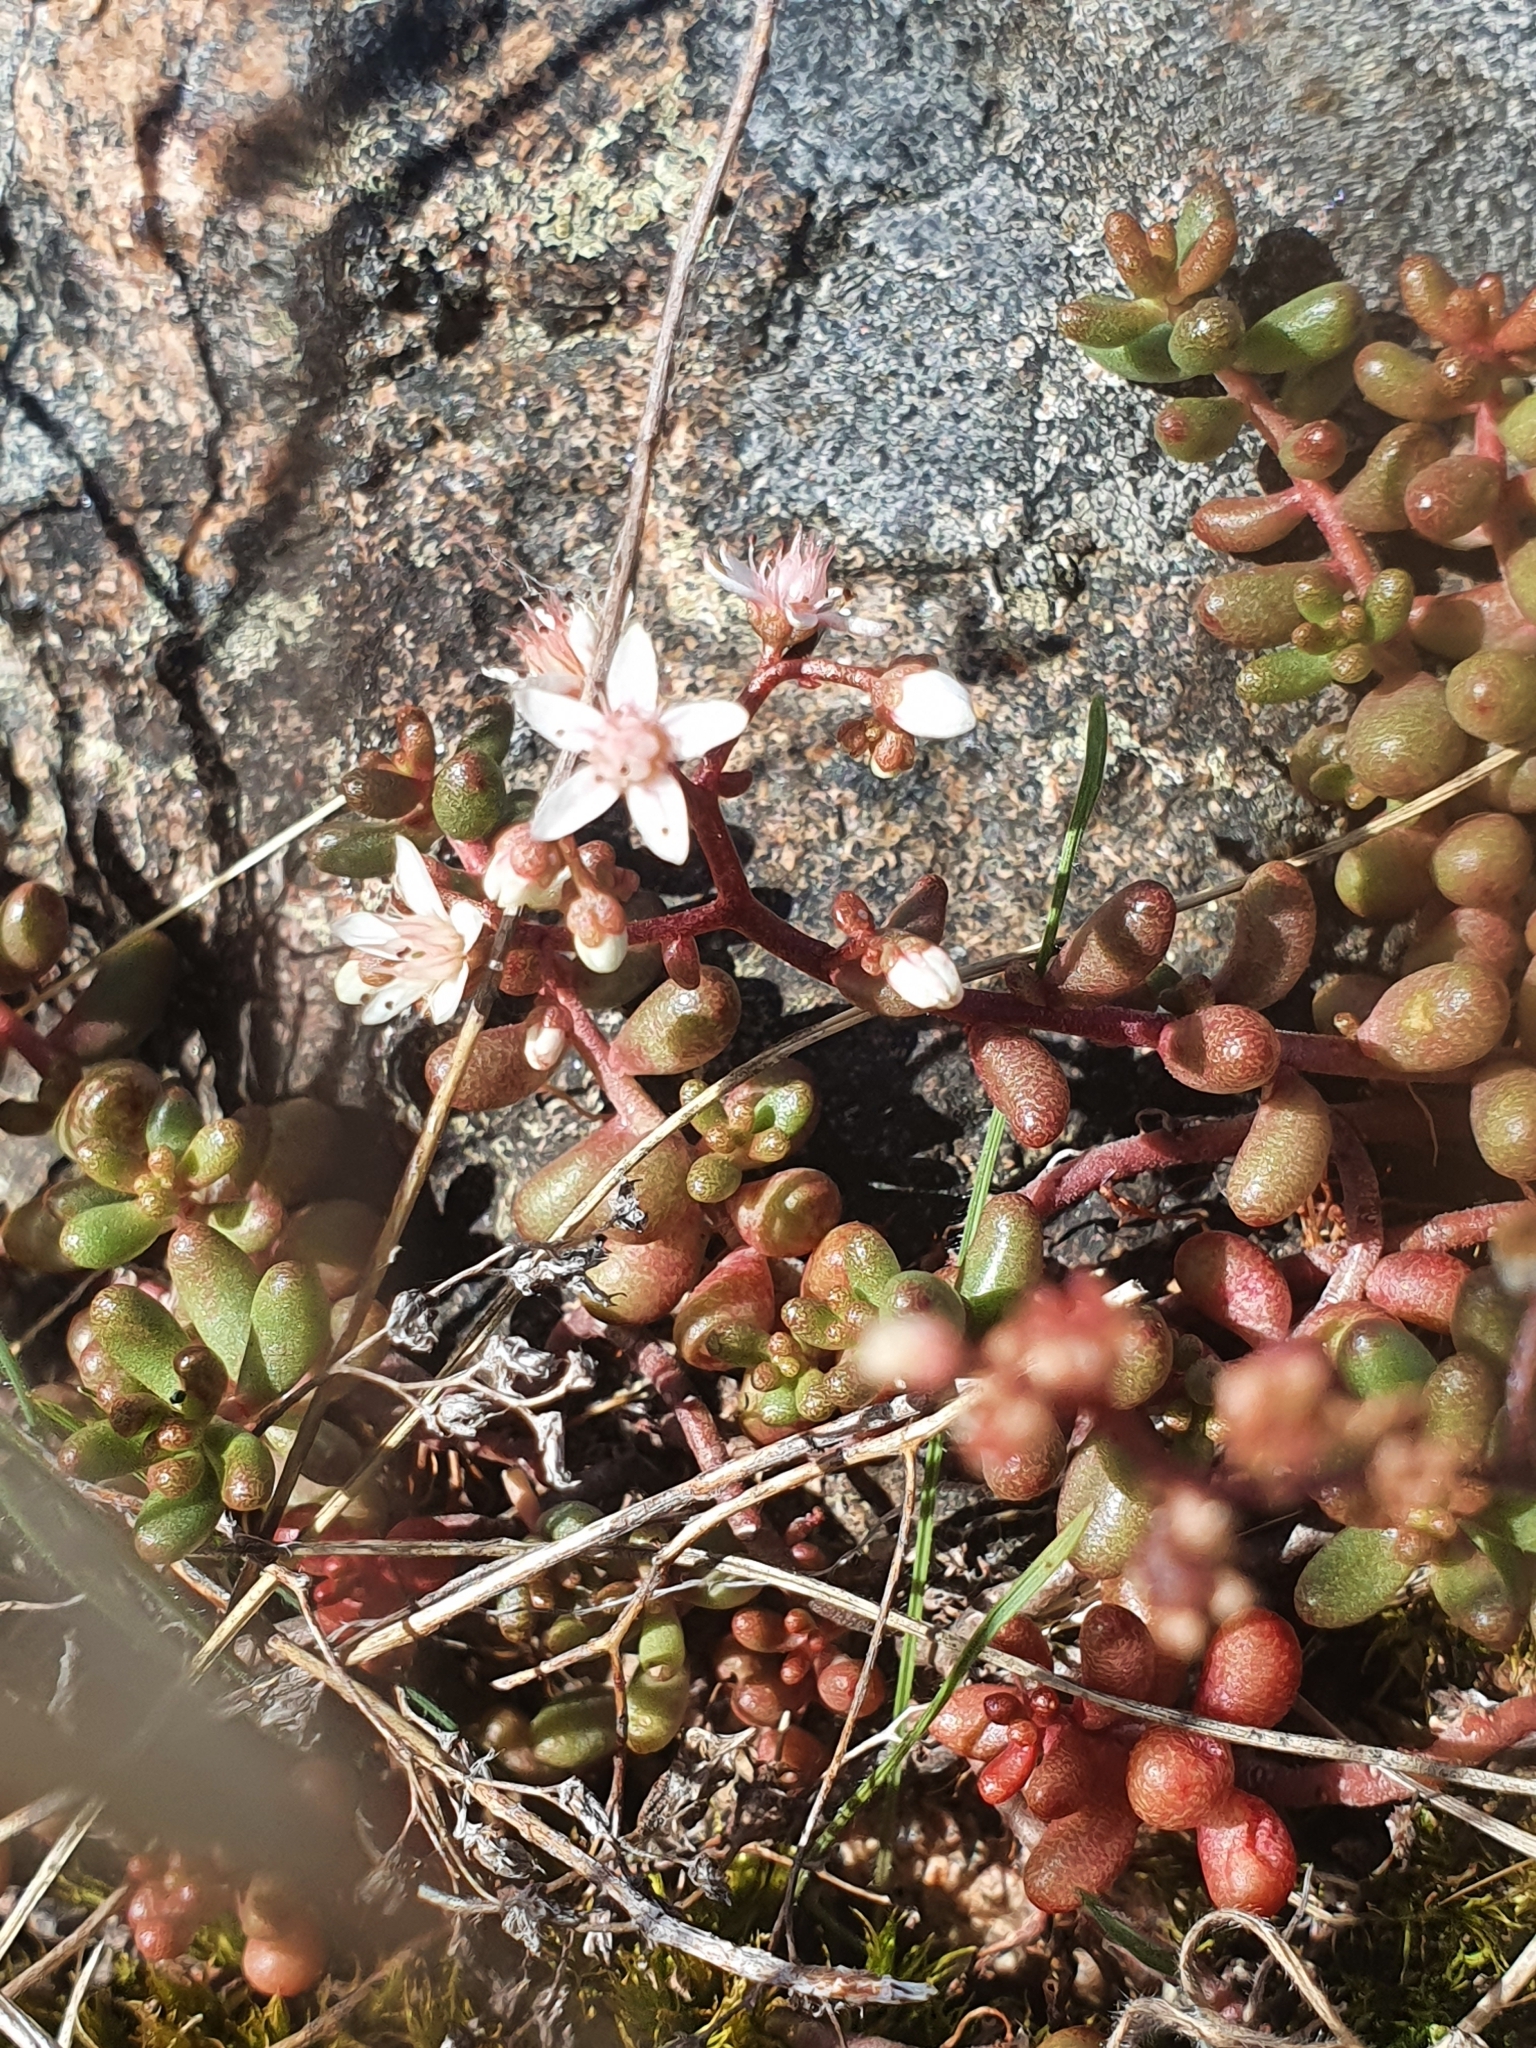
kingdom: Plantae
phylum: Tracheophyta
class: Magnoliopsida
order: Saxifragales
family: Crassulaceae
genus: Sedum
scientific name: Sedum album
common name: White stonecrop
